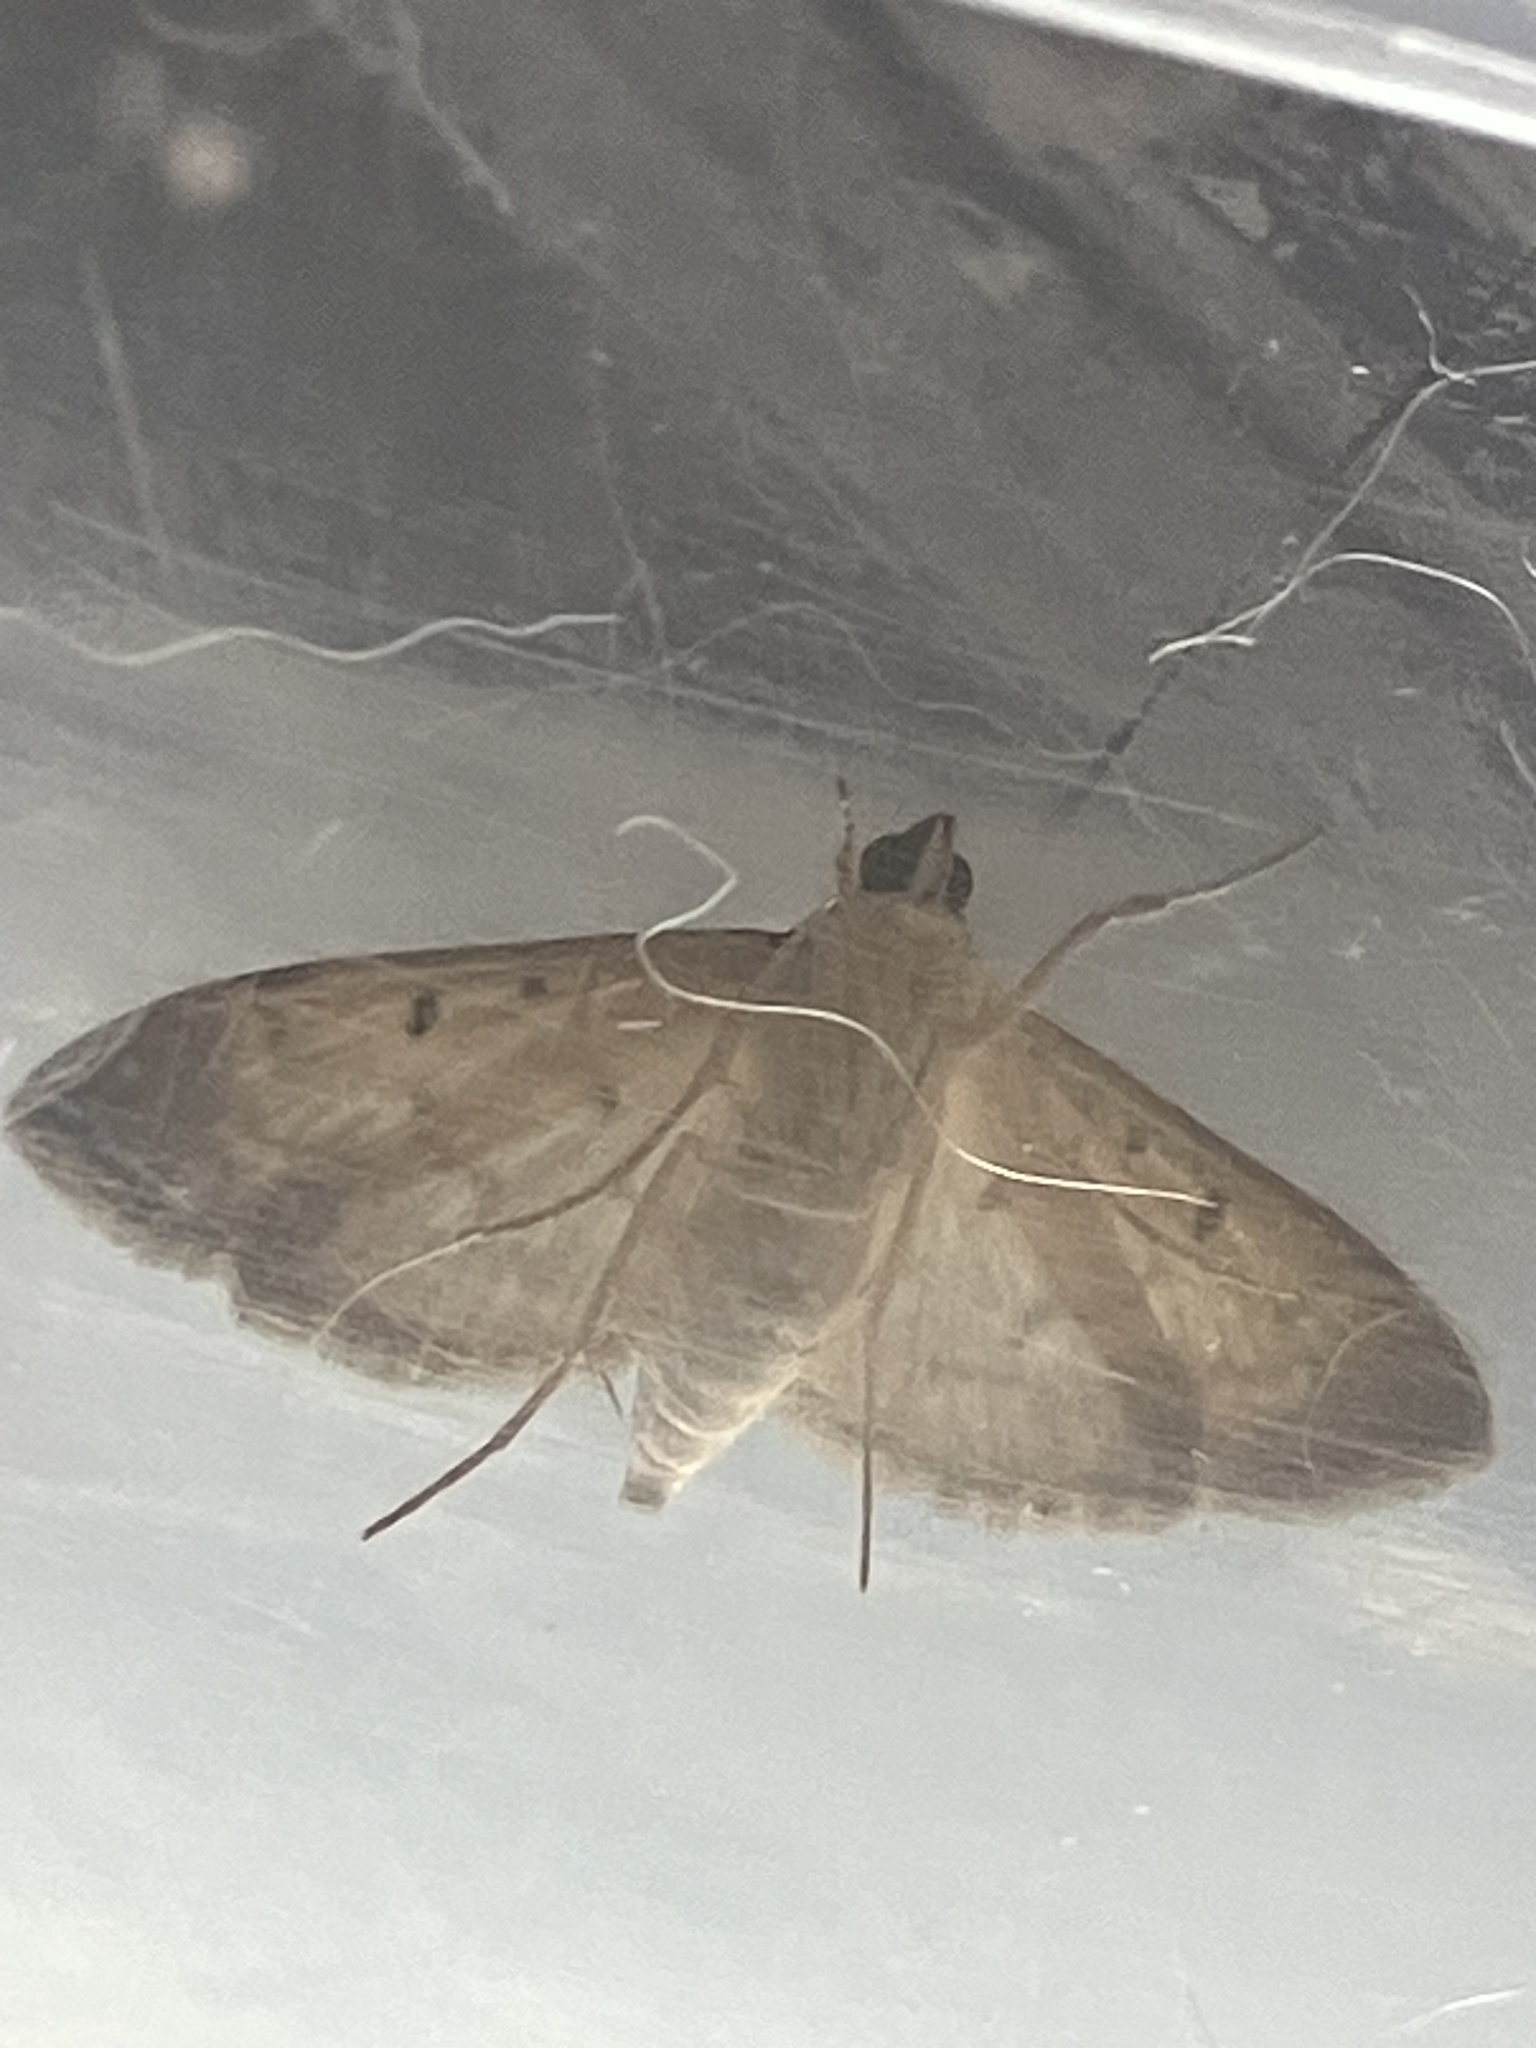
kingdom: Animalia
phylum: Arthropoda
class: Insecta
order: Lepidoptera
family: Crambidae
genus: Herpetogramma
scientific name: Herpetogramma bipunctalis
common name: Southern beet webworm
